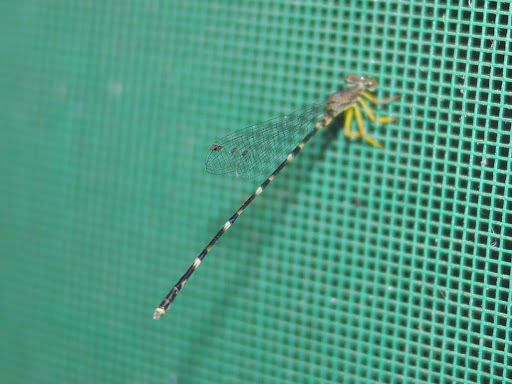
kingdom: Animalia
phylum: Arthropoda
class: Insecta
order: Odonata
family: Platycnemididae
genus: Copera
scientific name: Copera congolensis
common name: Congo featherleg
